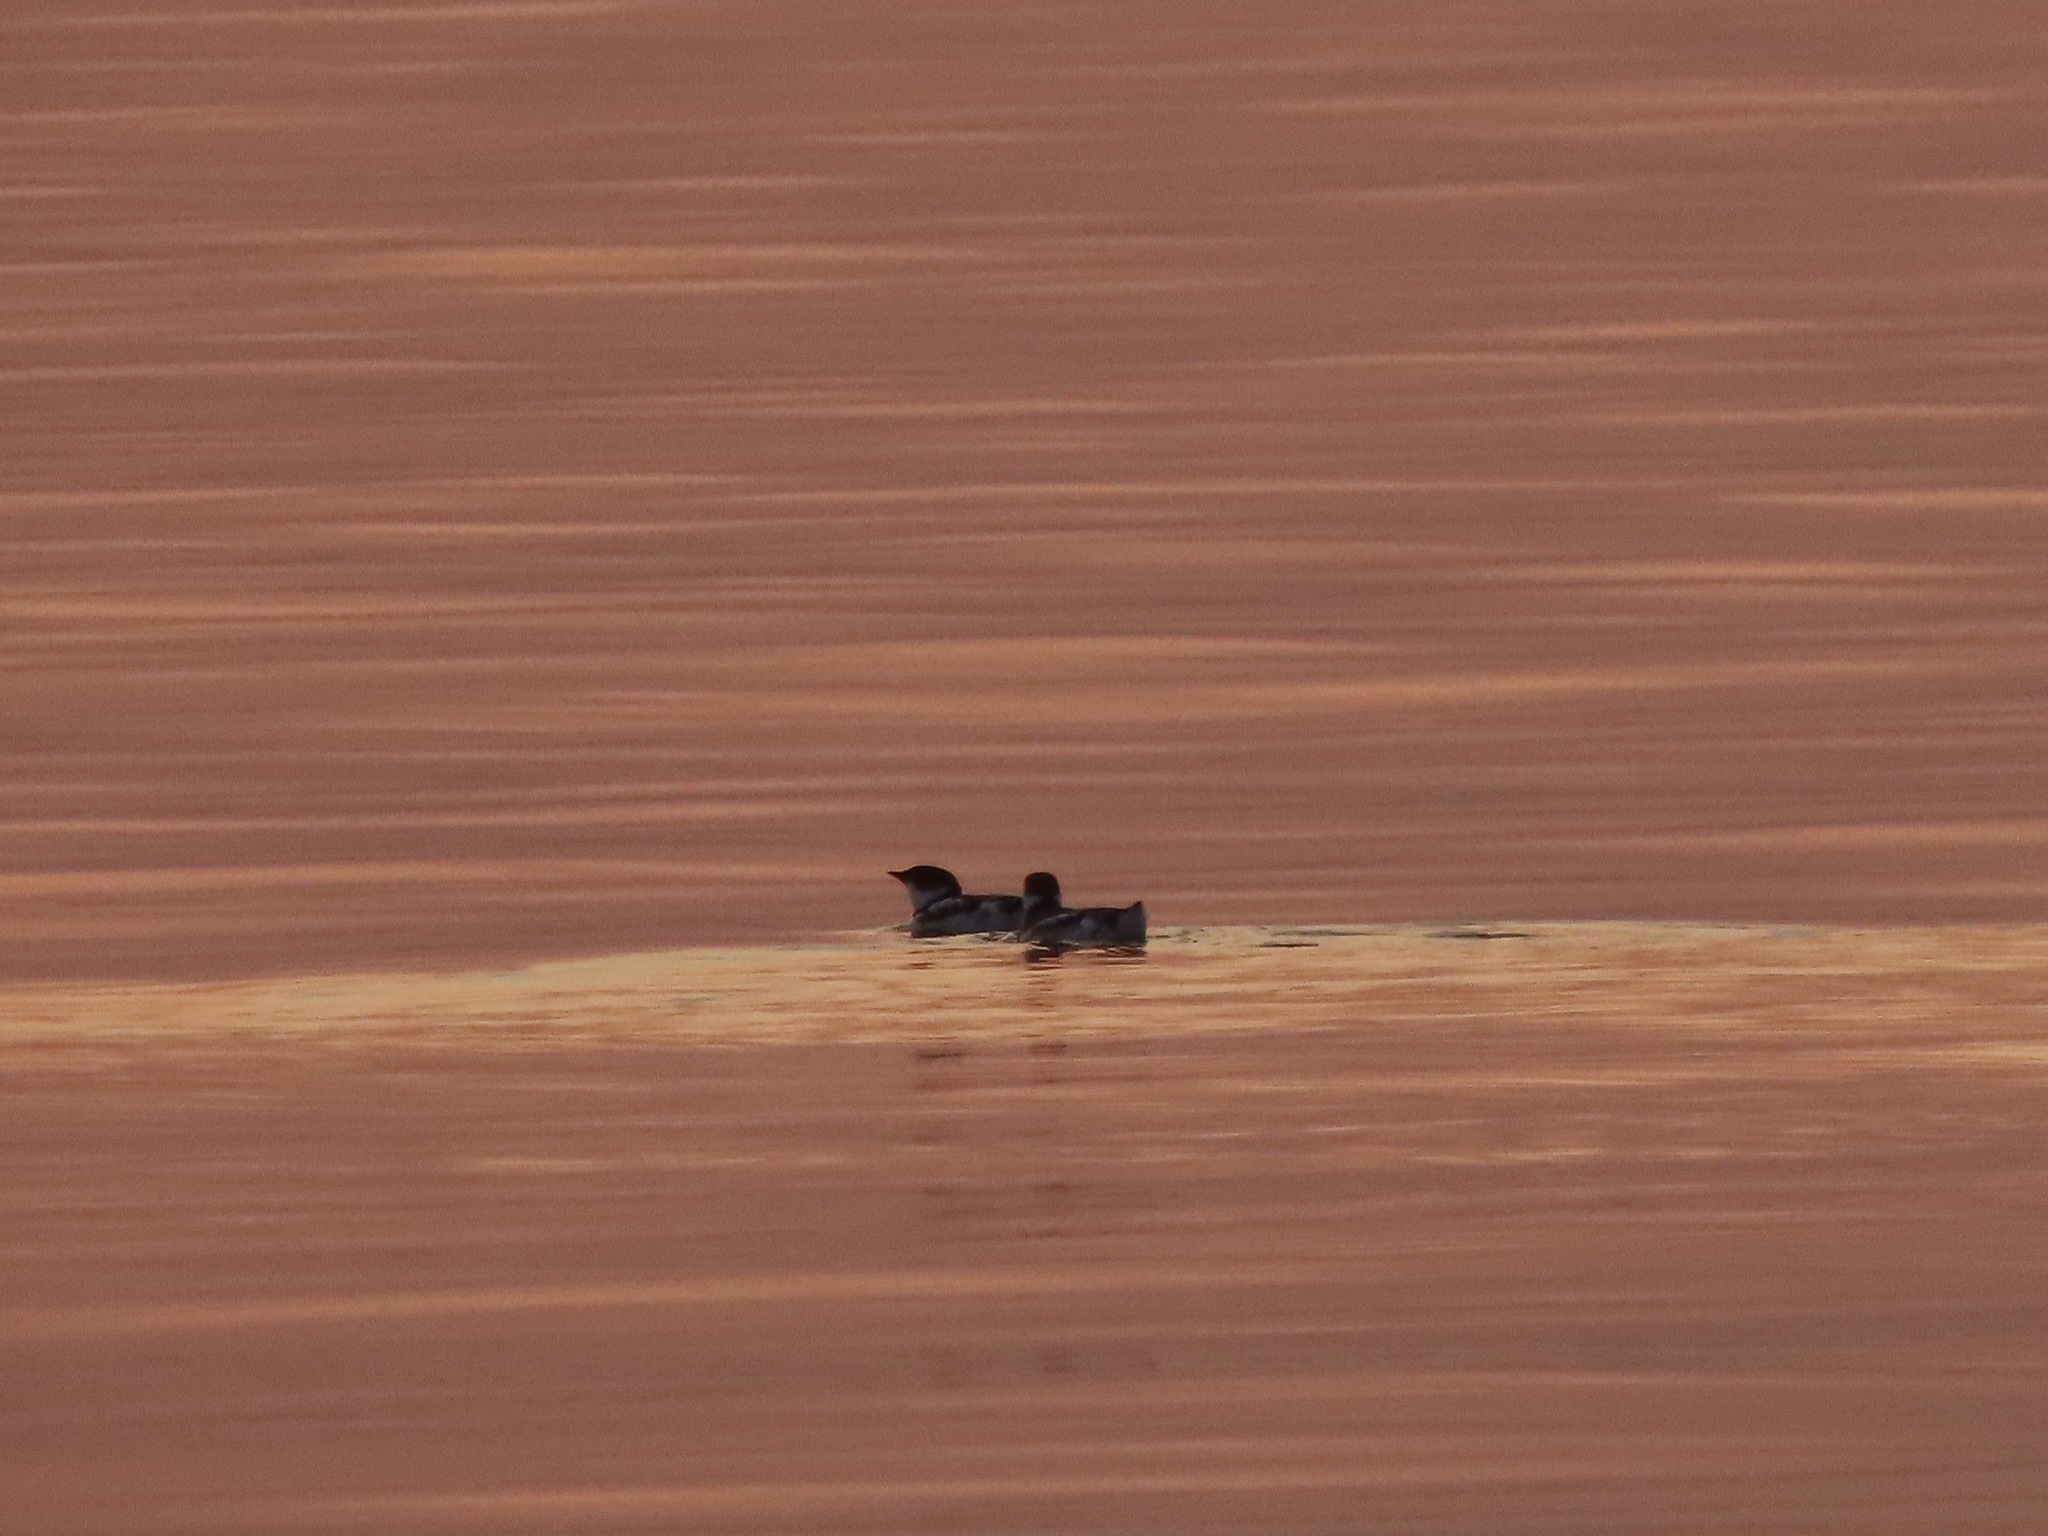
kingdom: Animalia
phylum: Chordata
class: Aves
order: Charadriiformes
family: Alcidae
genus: Brachyramphus
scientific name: Brachyramphus marmoratus
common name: Marbled murrelet
